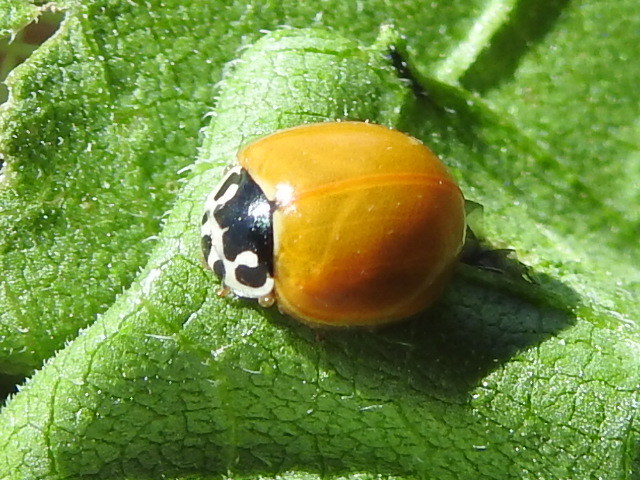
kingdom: Animalia
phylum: Arthropoda
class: Insecta
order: Coleoptera
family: Coccinellidae
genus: Cycloneda
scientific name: Cycloneda munda
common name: Polished lady beetle
